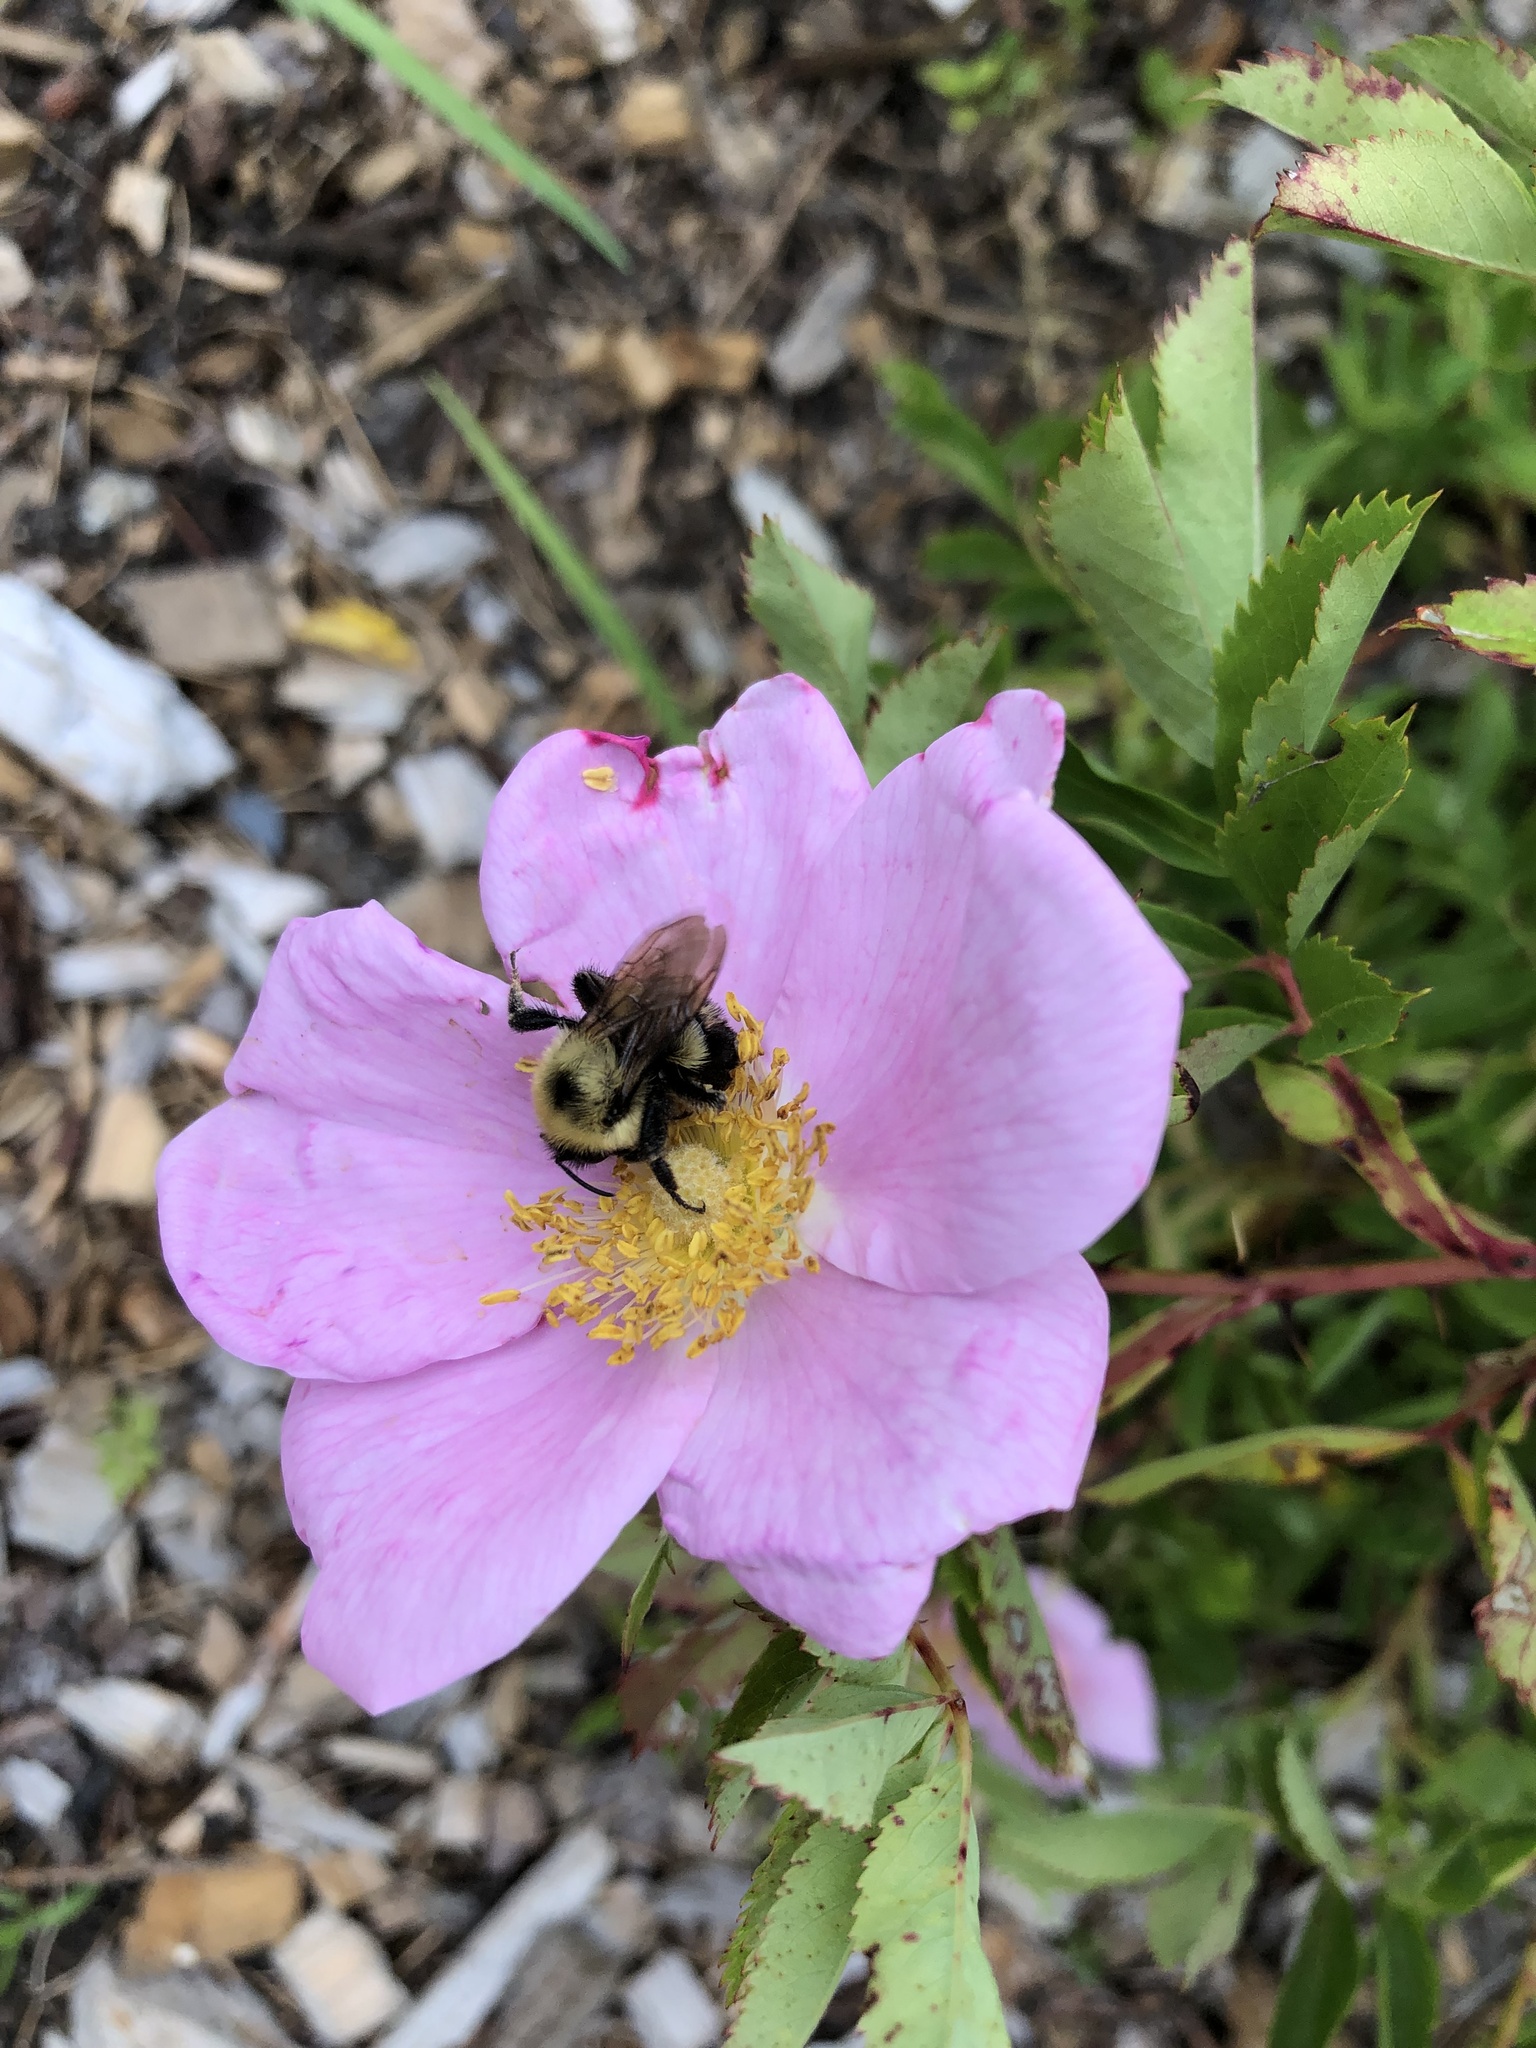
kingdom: Animalia
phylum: Arthropoda
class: Insecta
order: Hymenoptera
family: Apidae
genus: Bombus
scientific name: Bombus bimaculatus
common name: Two-spotted bumble bee
